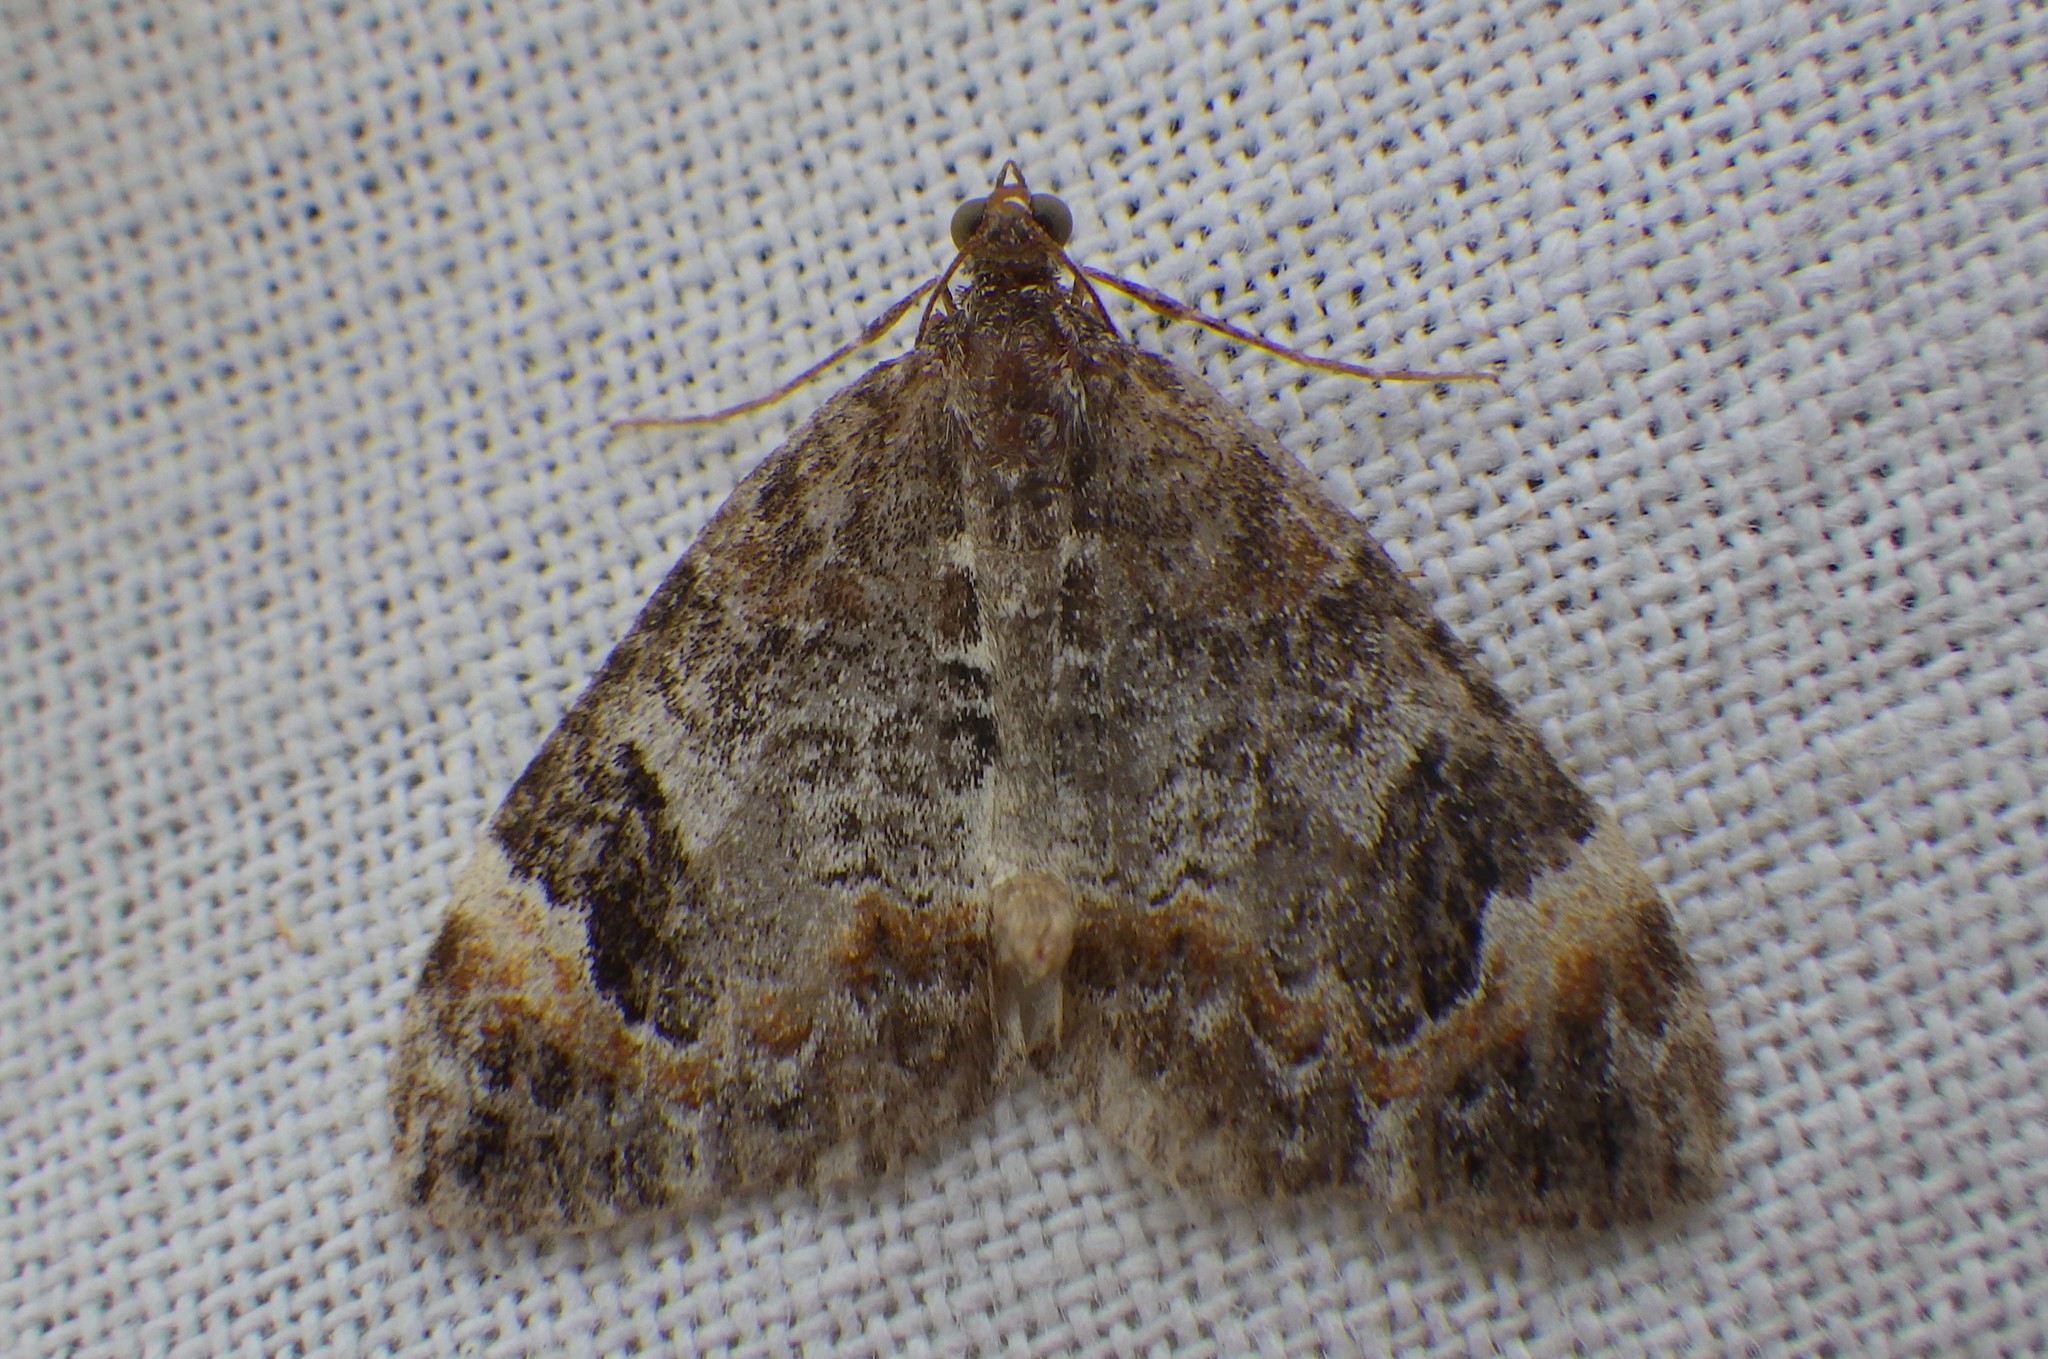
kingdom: Animalia
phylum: Arthropoda
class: Insecta
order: Lepidoptera
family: Geometridae
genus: Dysstroma
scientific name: Dysstroma truncata
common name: Common marbled carpet
